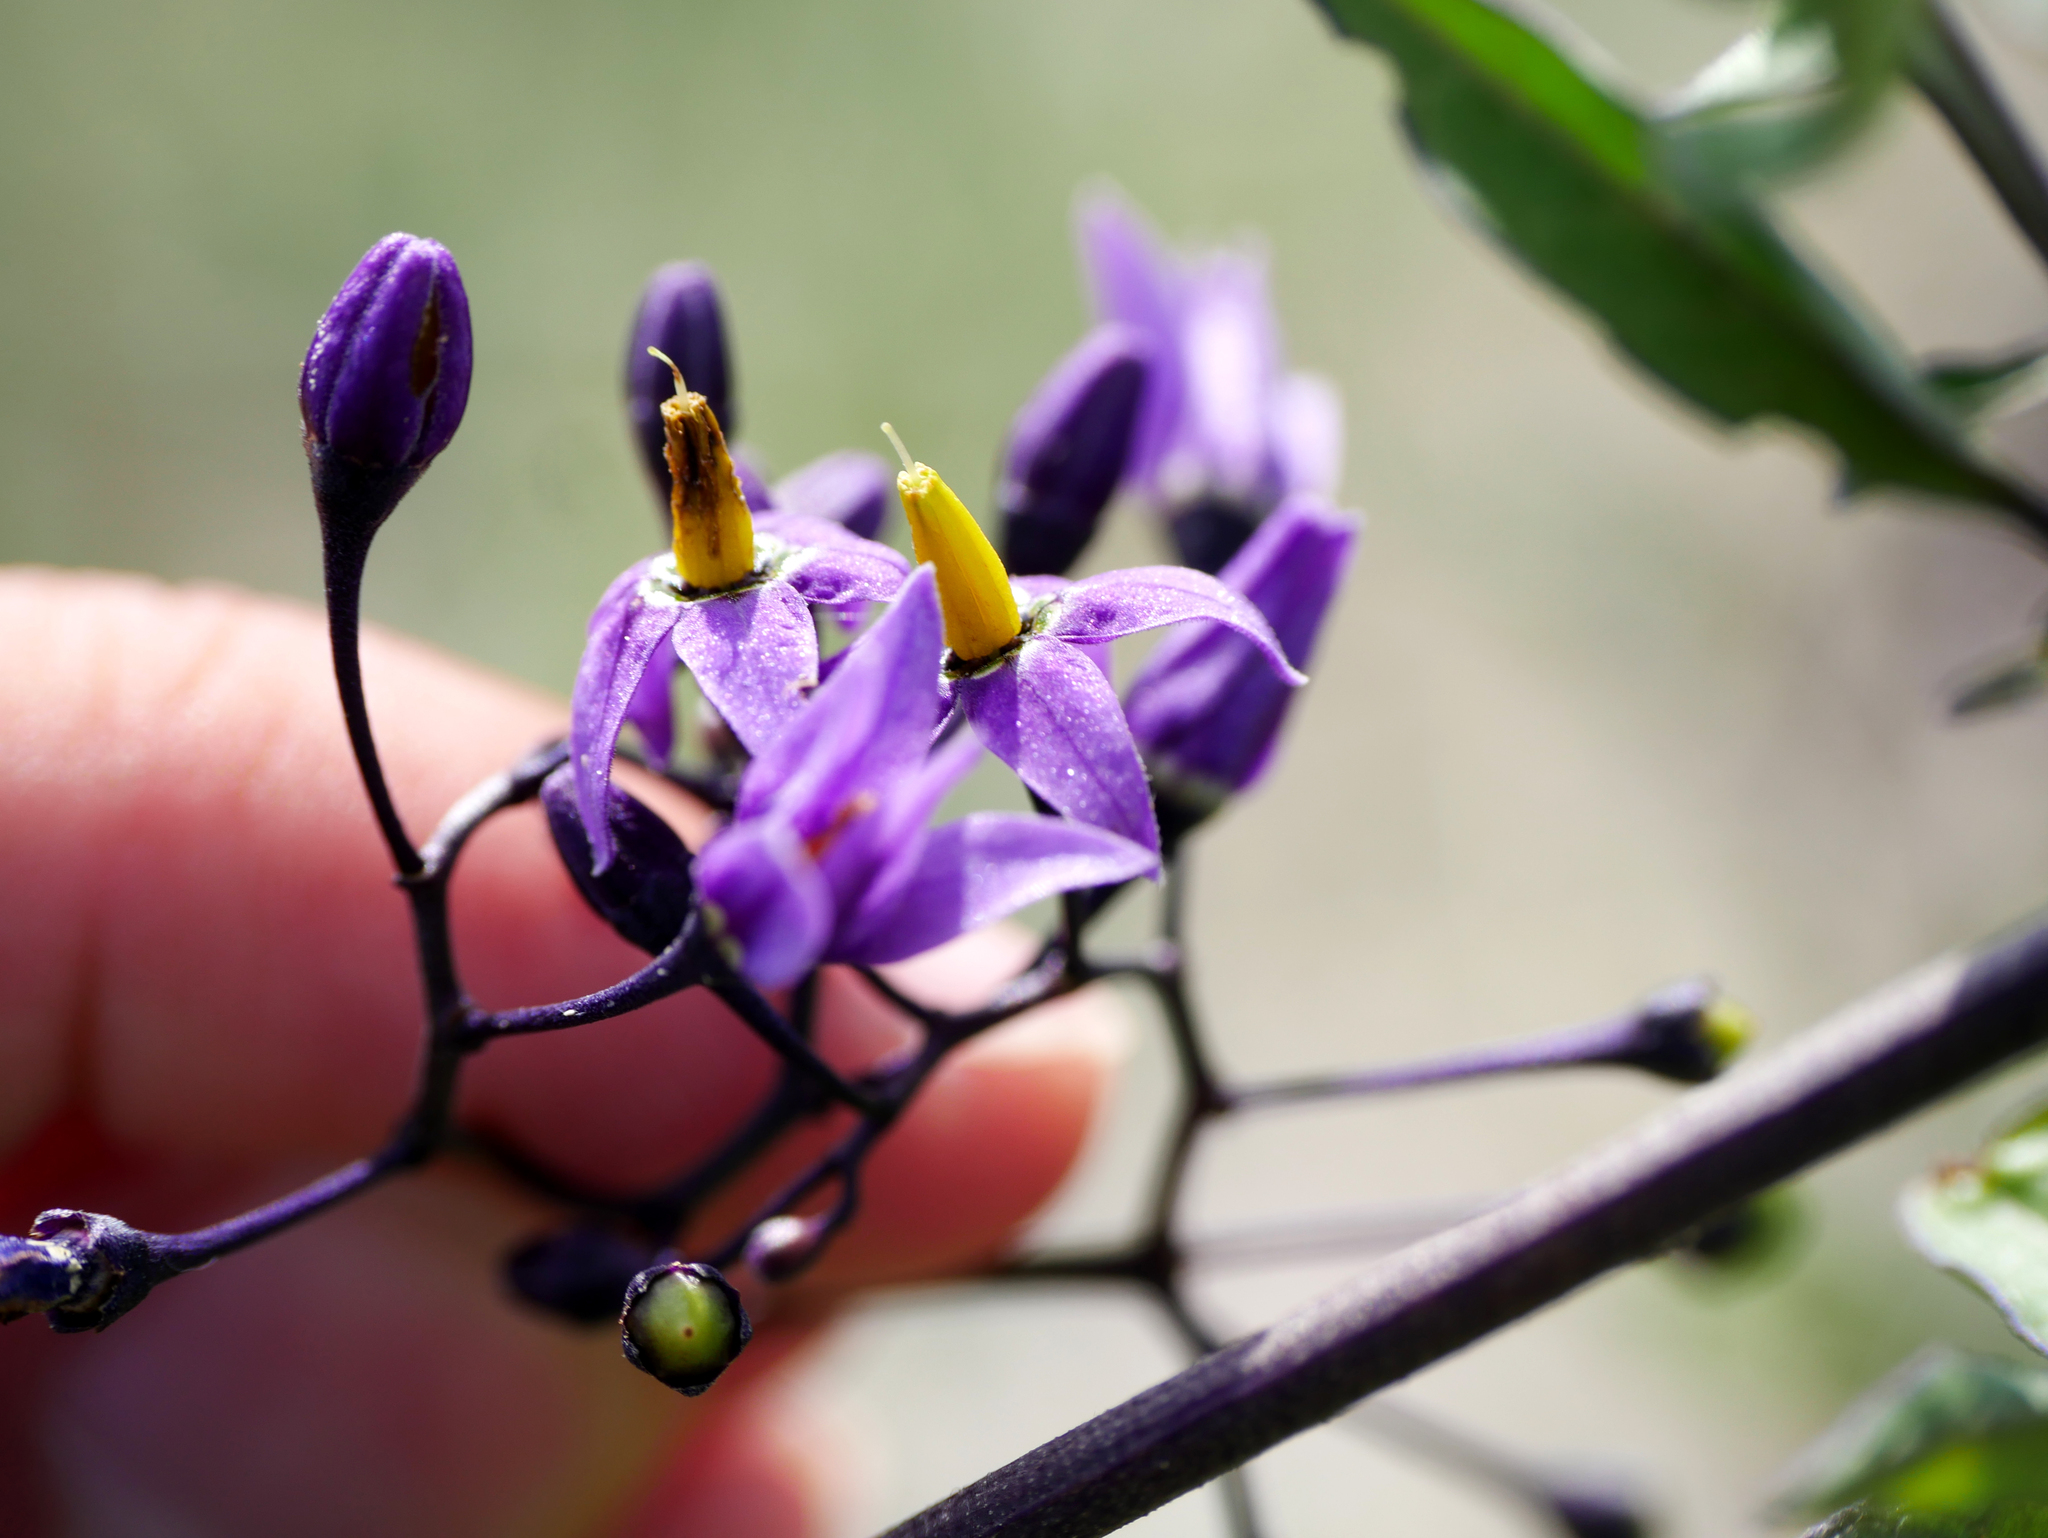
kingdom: Plantae
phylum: Tracheophyta
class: Magnoliopsida
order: Solanales
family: Solanaceae
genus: Solanum
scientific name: Solanum dulcamara
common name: Climbing nightshade
